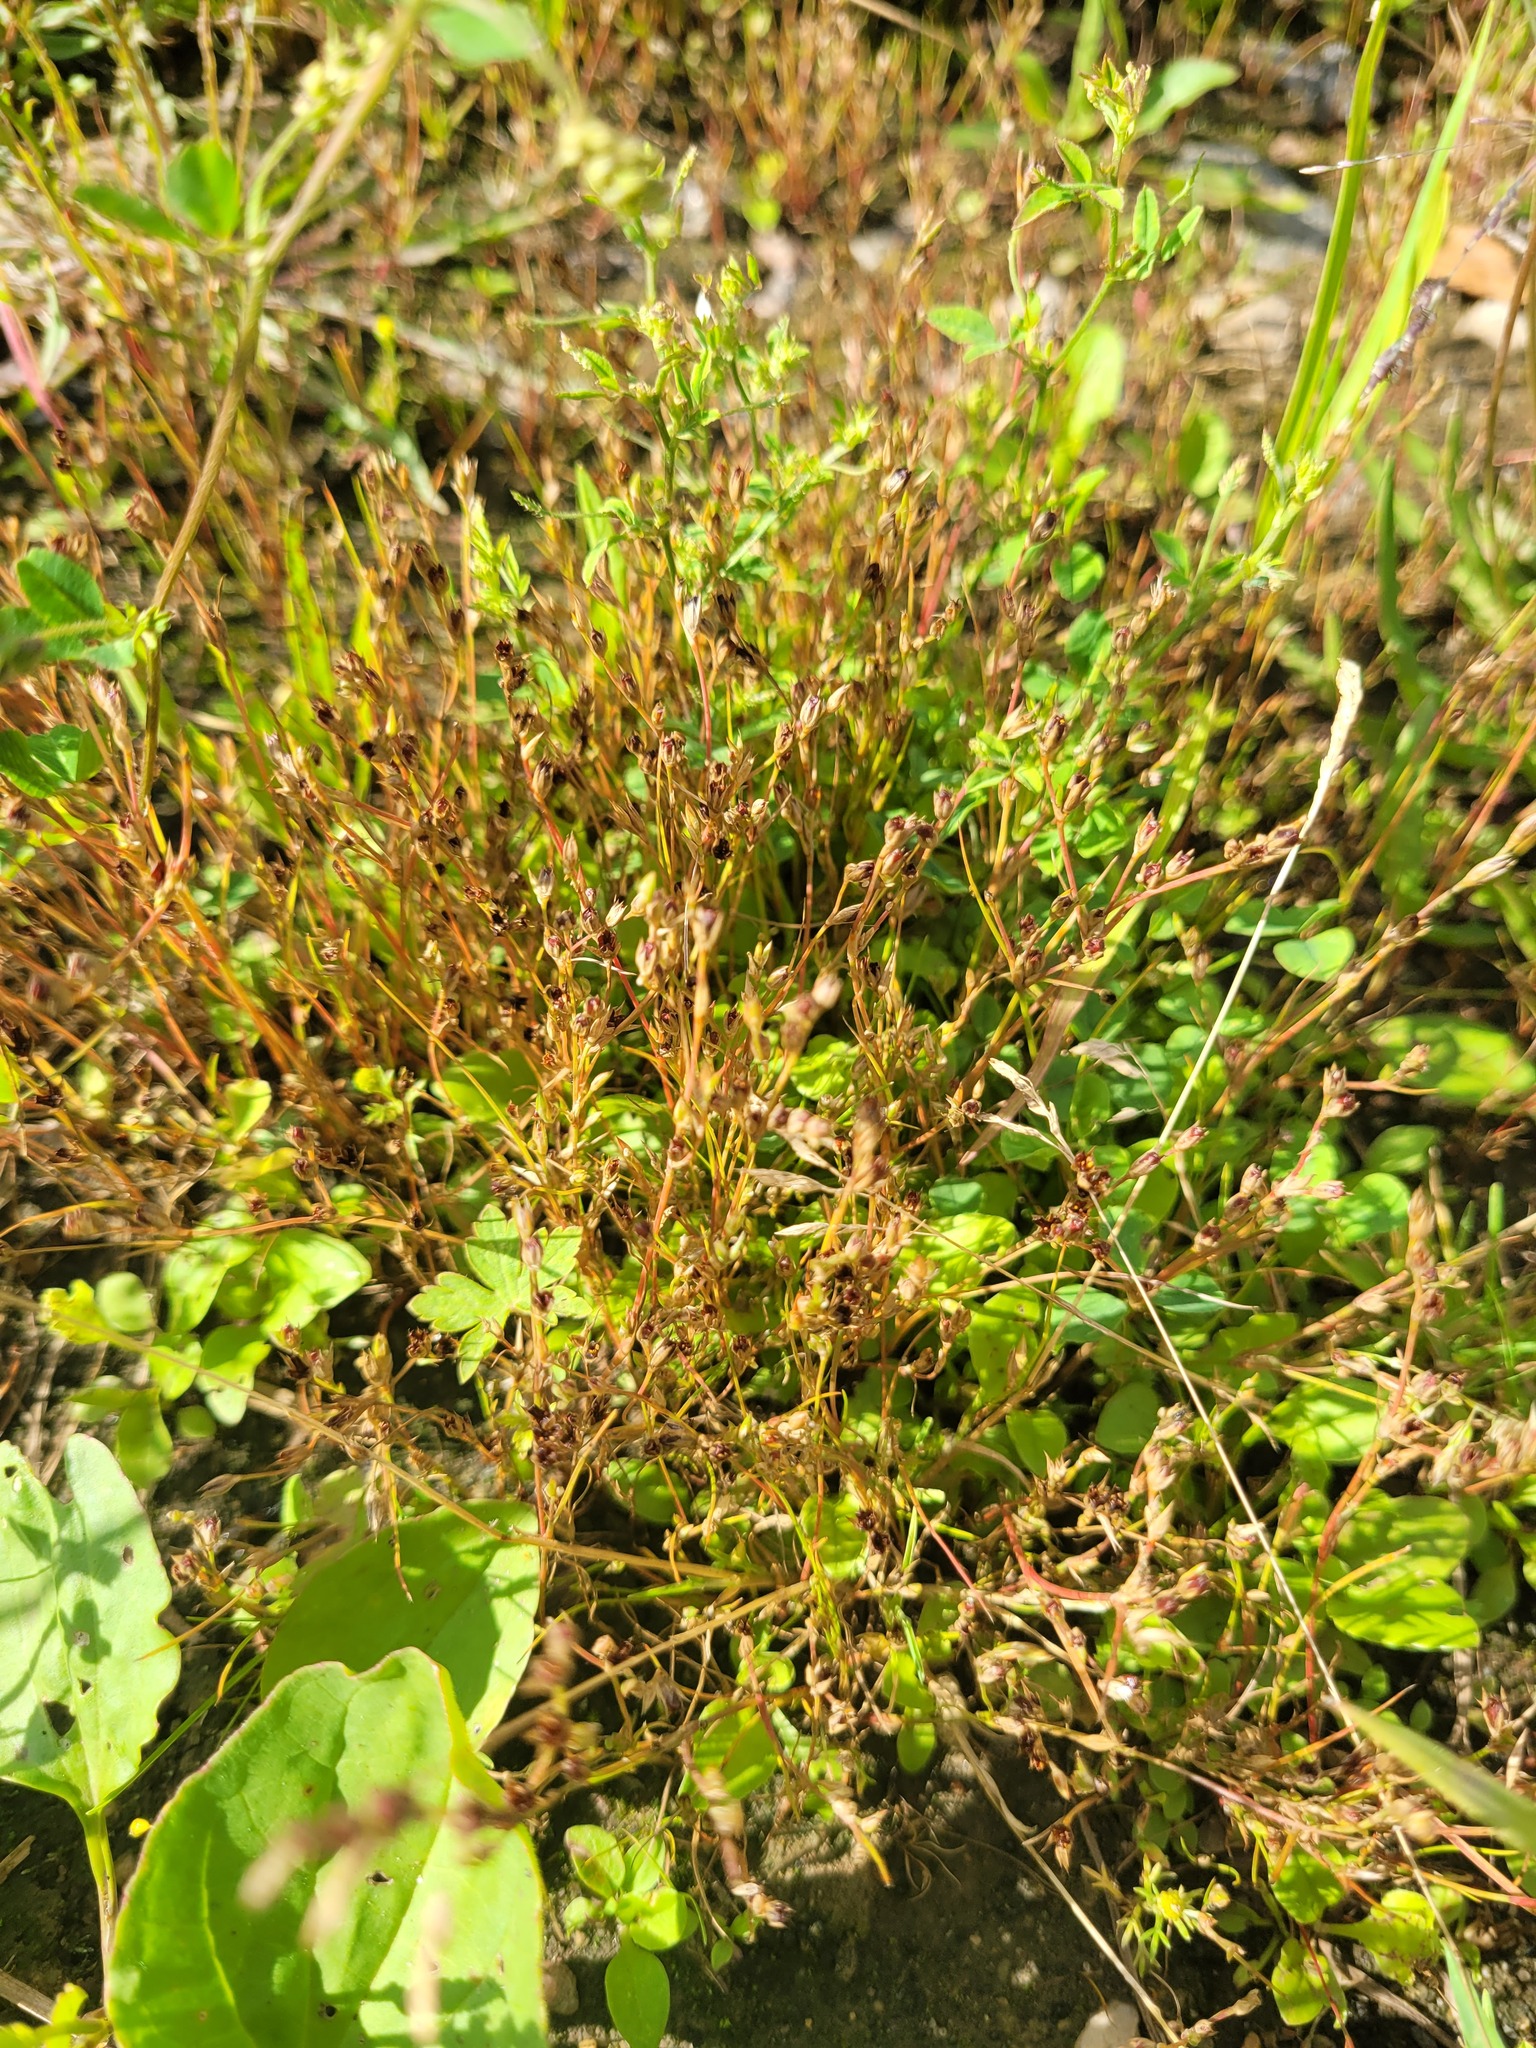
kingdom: Plantae
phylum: Tracheophyta
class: Liliopsida
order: Poales
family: Juncaceae
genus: Juncus
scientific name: Juncus bufonius
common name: Toad rush
